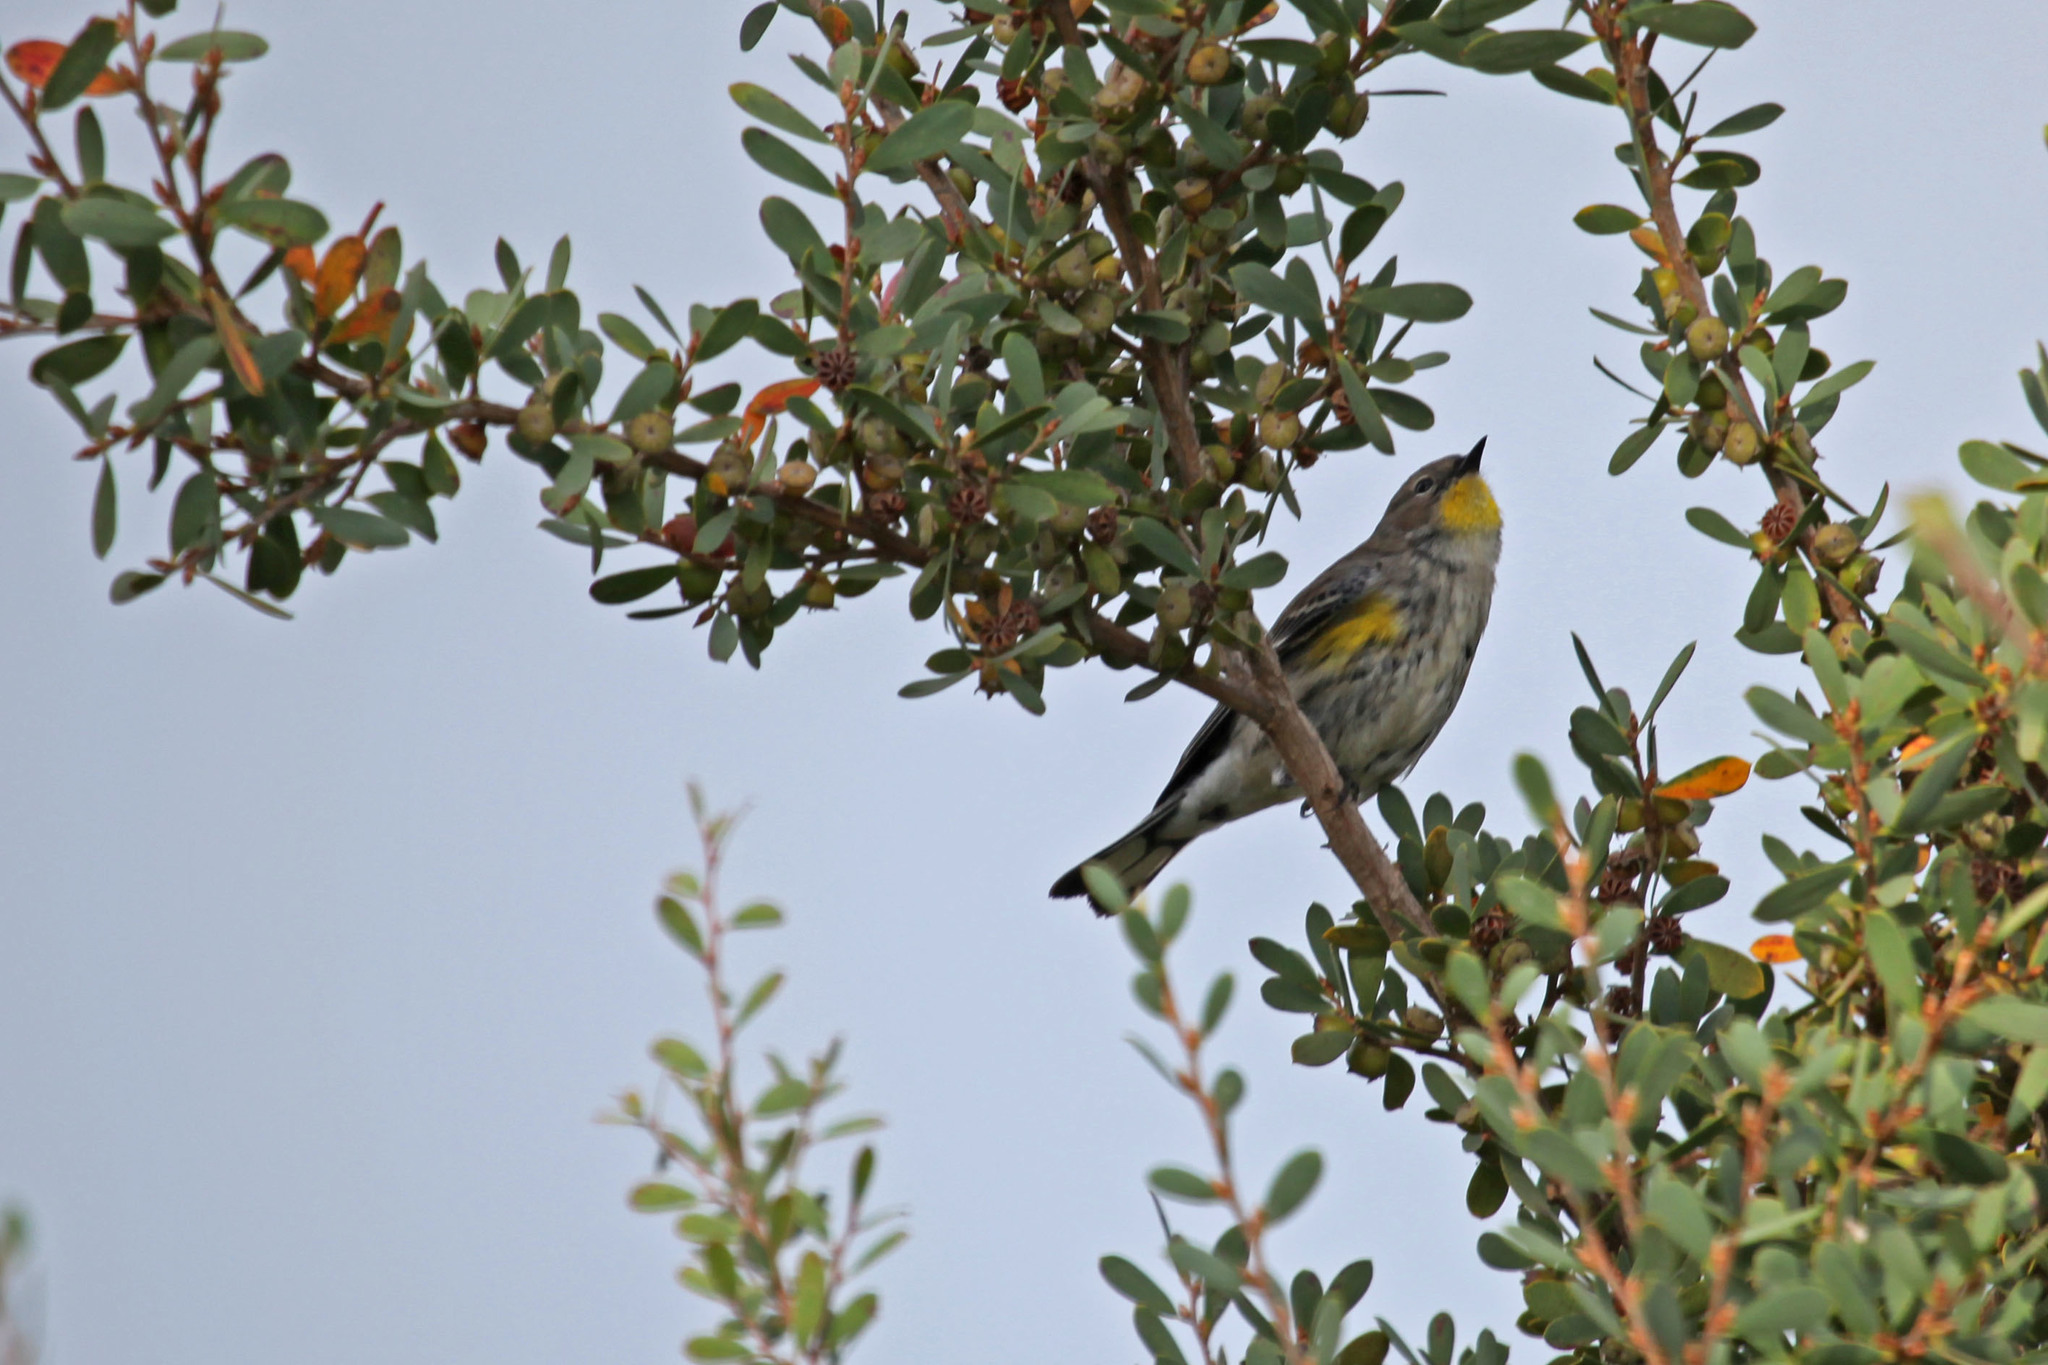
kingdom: Animalia
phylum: Chordata
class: Aves
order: Passeriformes
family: Parulidae
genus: Setophaga
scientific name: Setophaga coronata
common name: Myrtle warbler
